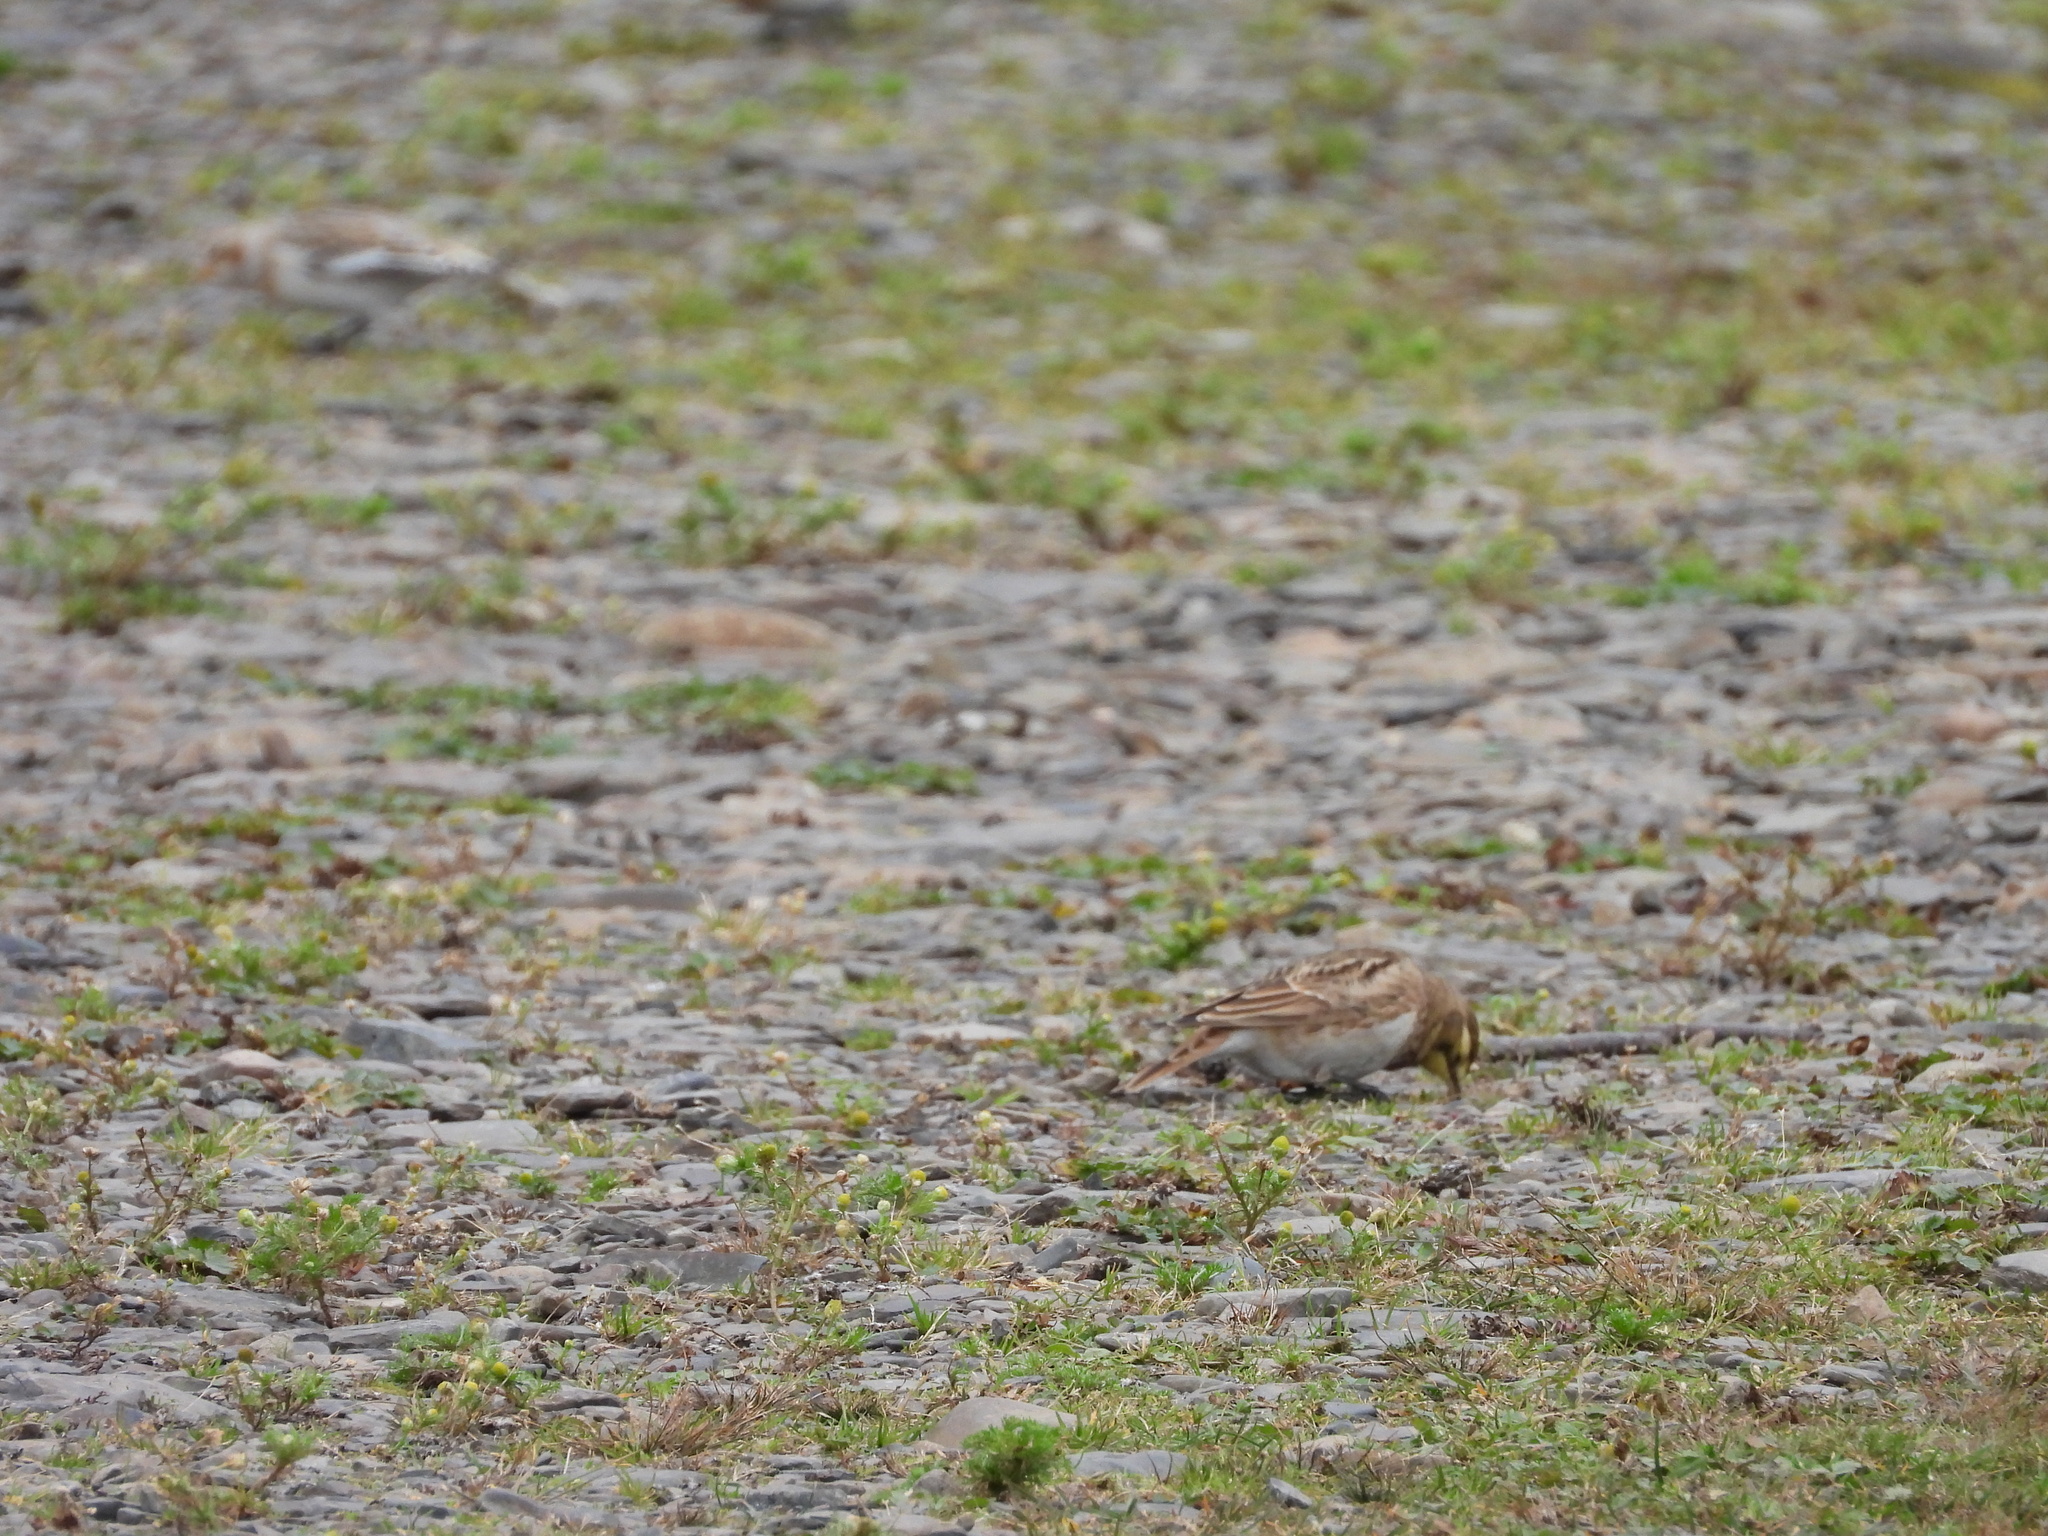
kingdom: Animalia
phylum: Chordata
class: Aves
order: Passeriformes
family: Alaudidae
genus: Eremophila
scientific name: Eremophila alpestris
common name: Horned lark
